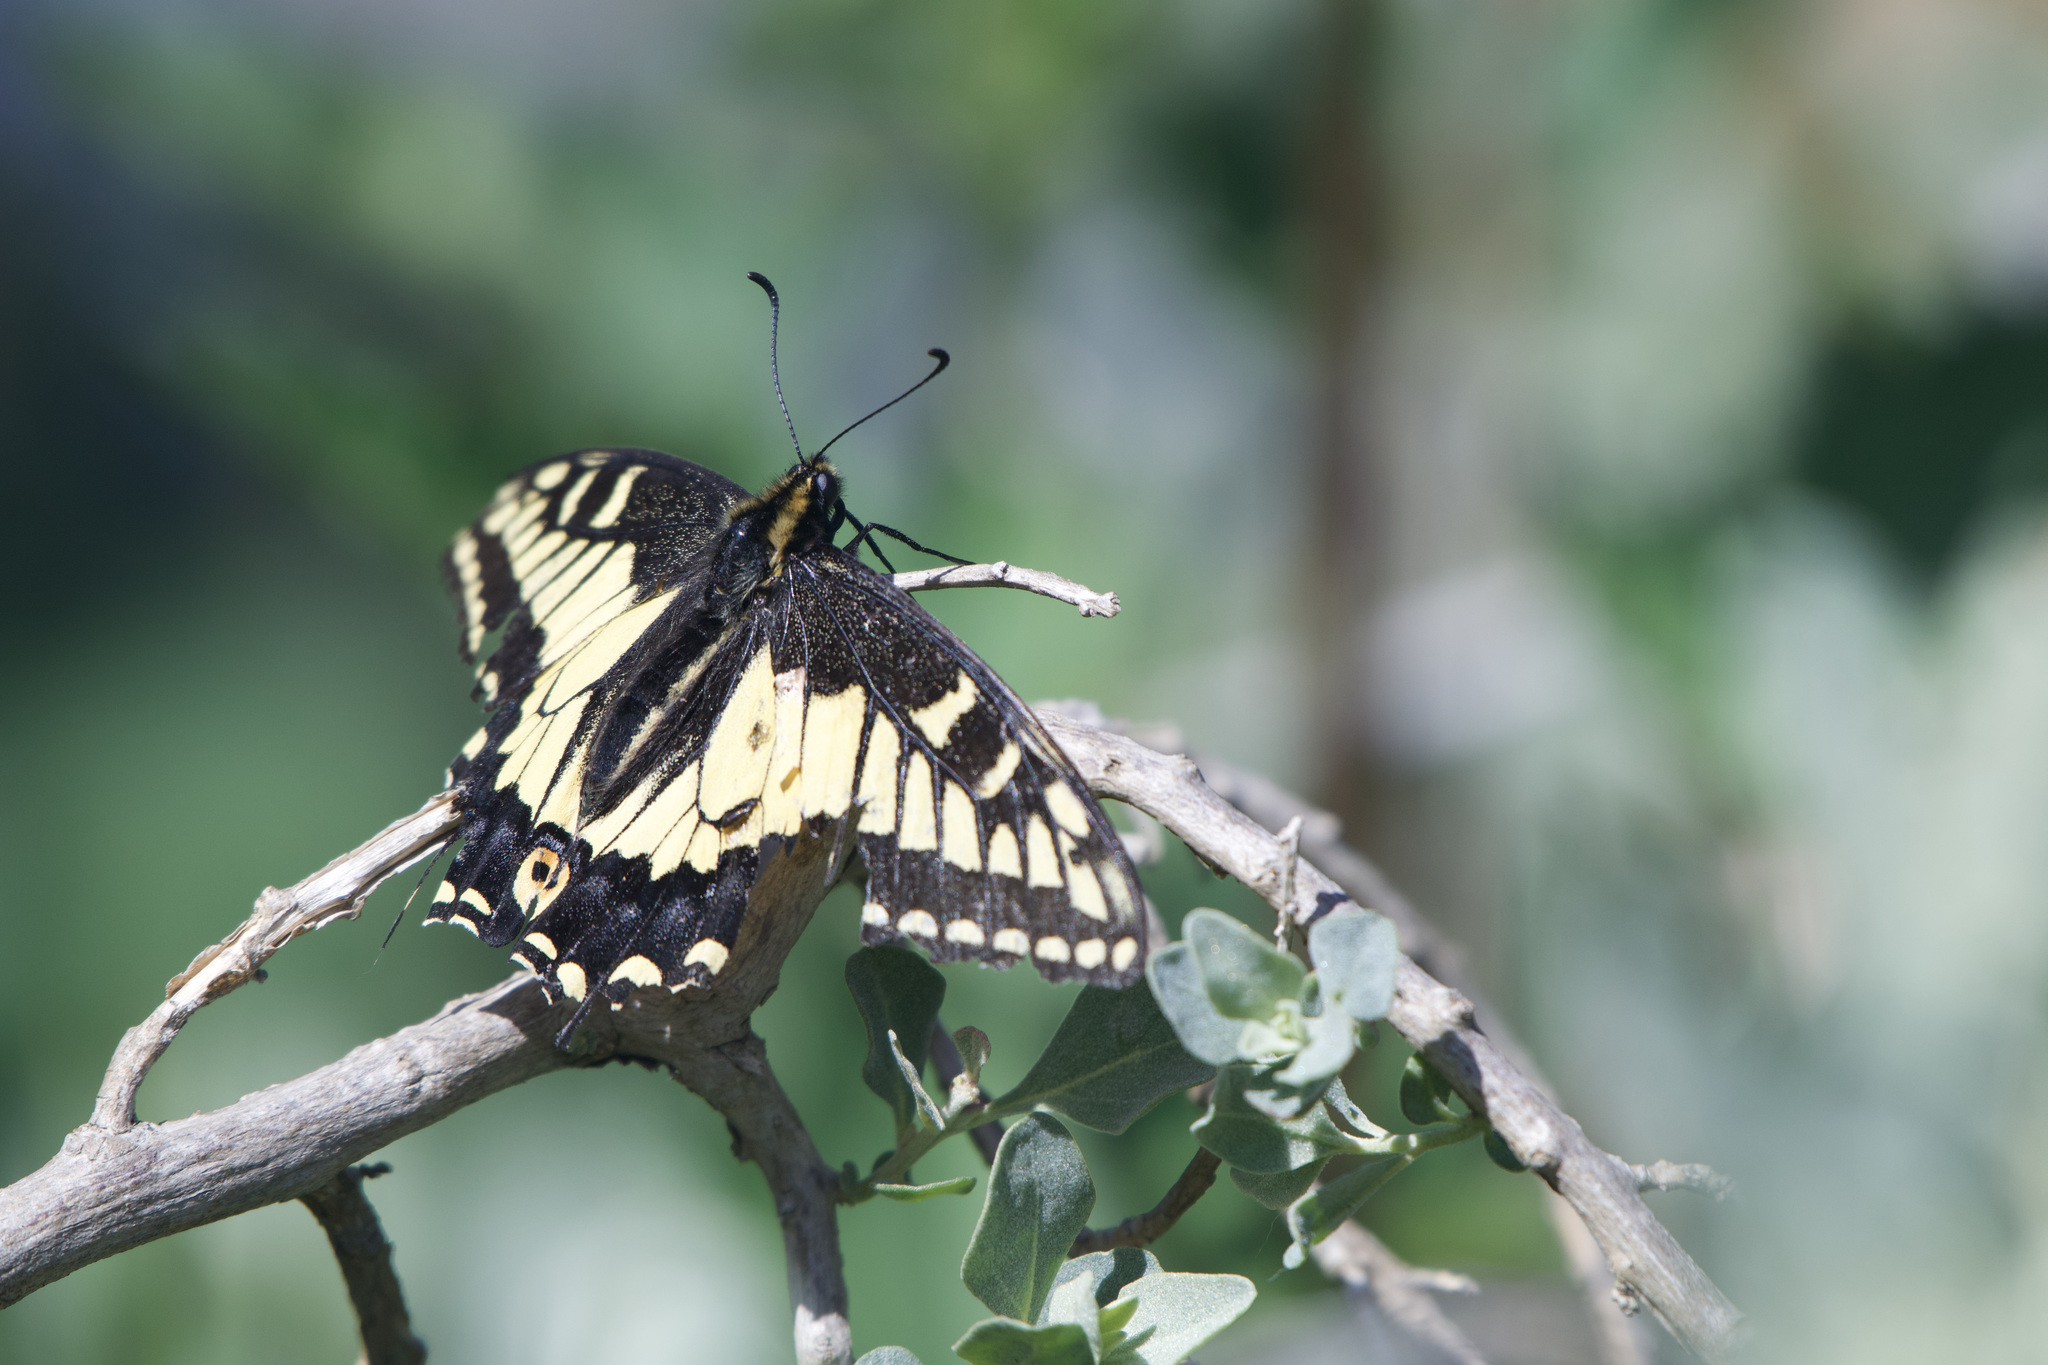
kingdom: Animalia
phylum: Arthropoda
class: Insecta
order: Lepidoptera
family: Papilionidae
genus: Papilio
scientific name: Papilio zelicaon
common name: Anise swallowtail
